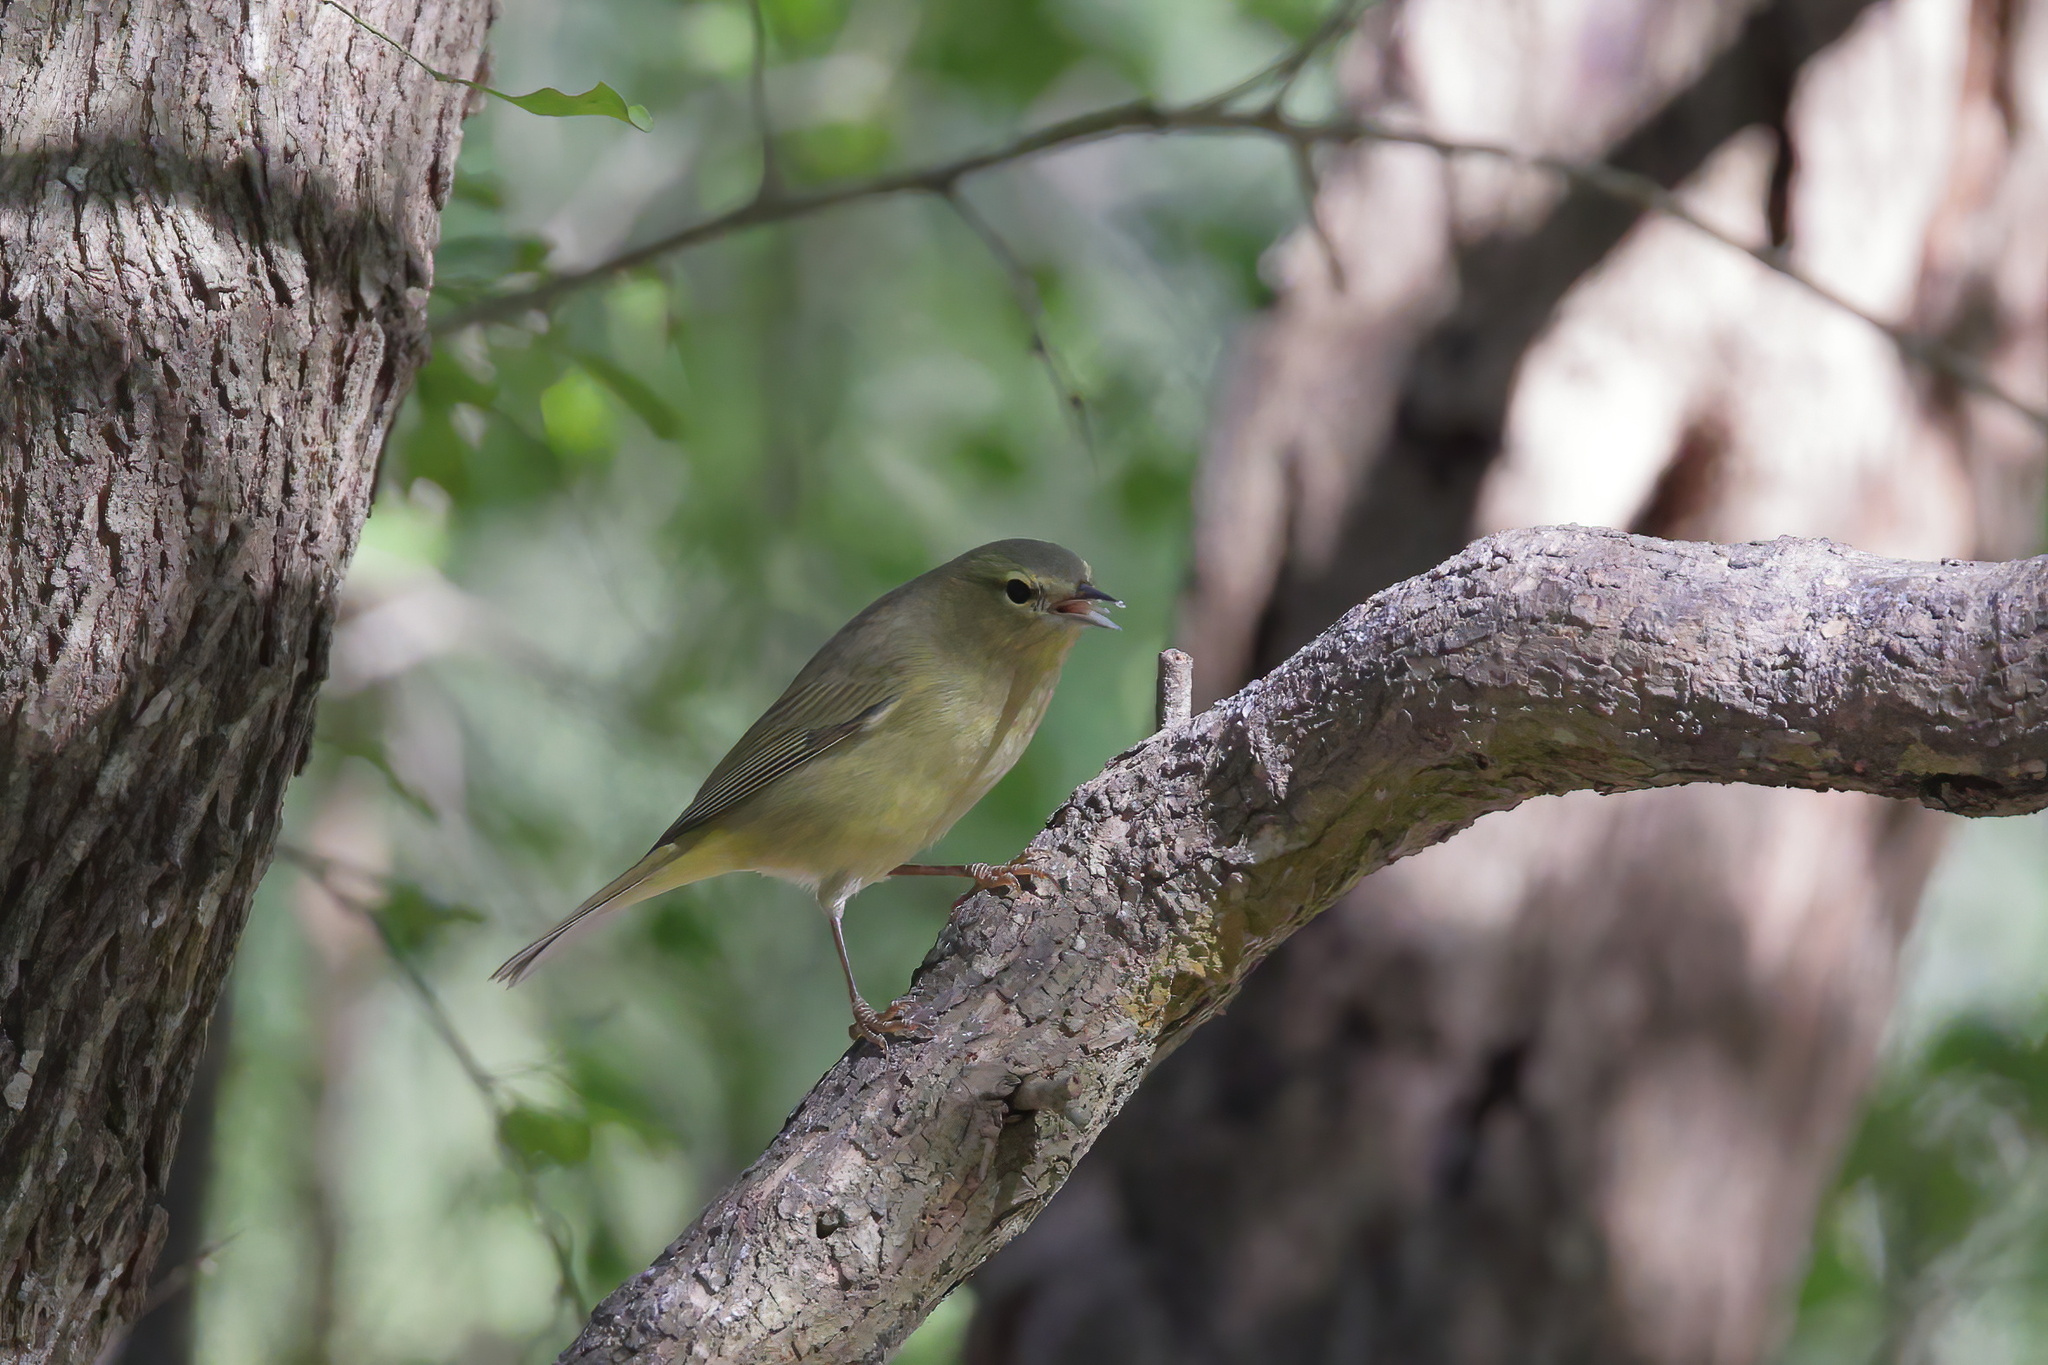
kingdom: Animalia
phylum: Chordata
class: Aves
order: Passeriformes
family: Parulidae
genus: Leiothlypis
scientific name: Leiothlypis celata
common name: Orange-crowned warbler
